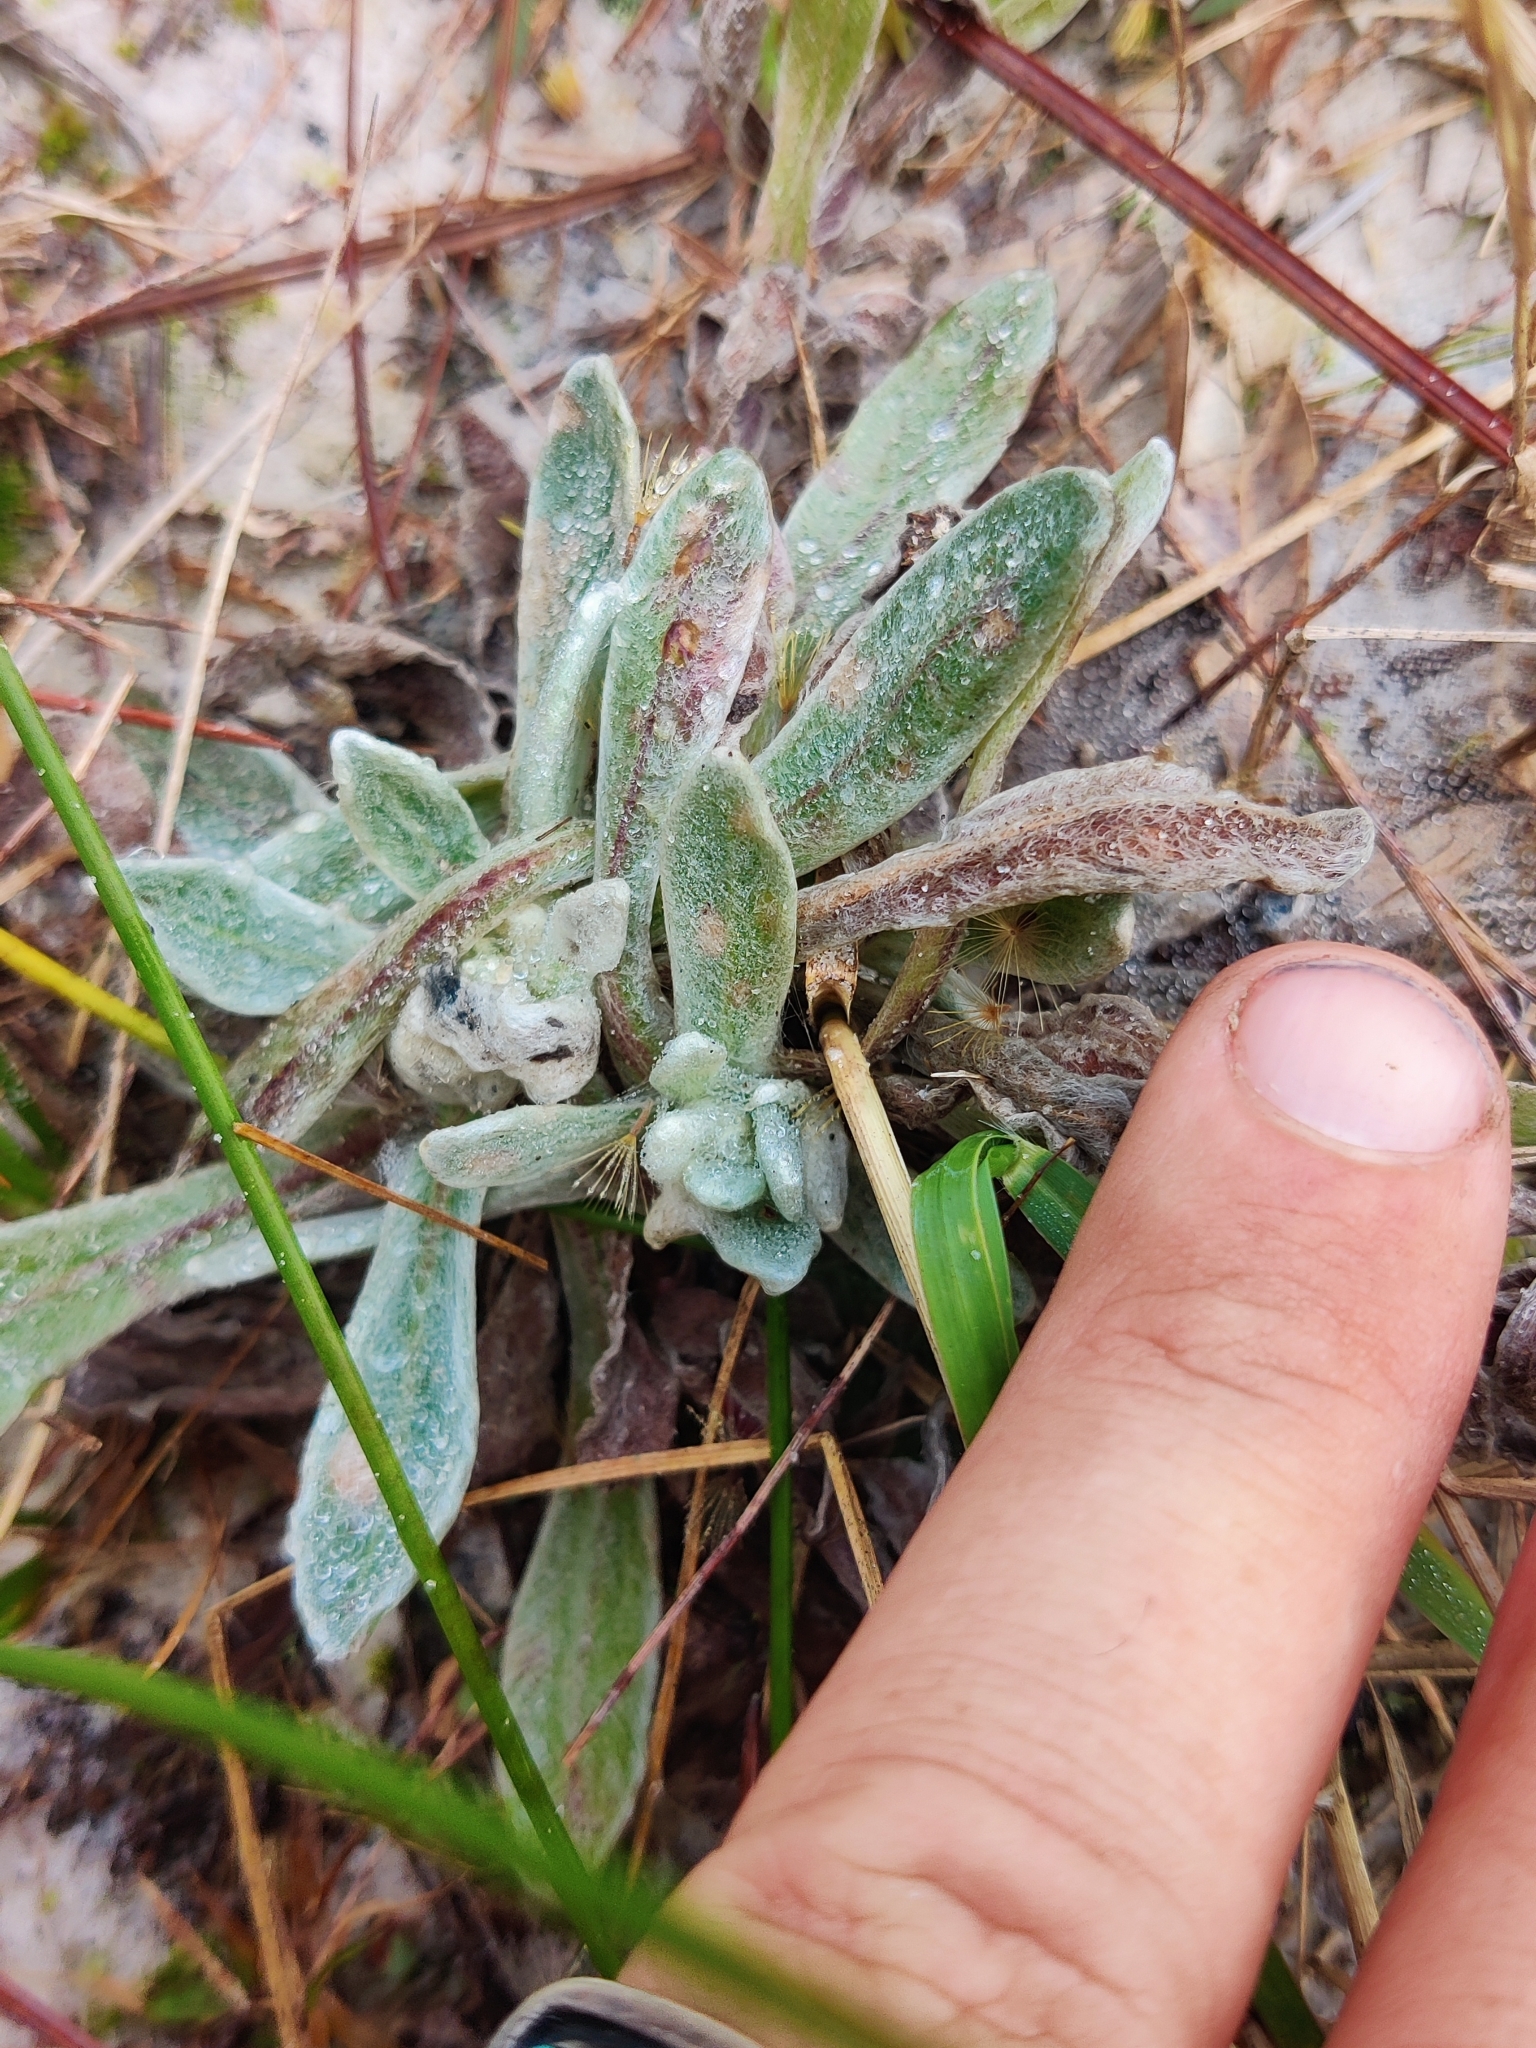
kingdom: Plantae
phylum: Tracheophyta
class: Magnoliopsida
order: Asterales
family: Asteraceae
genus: Chrysopsis
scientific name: Chrysopsis gossypina
